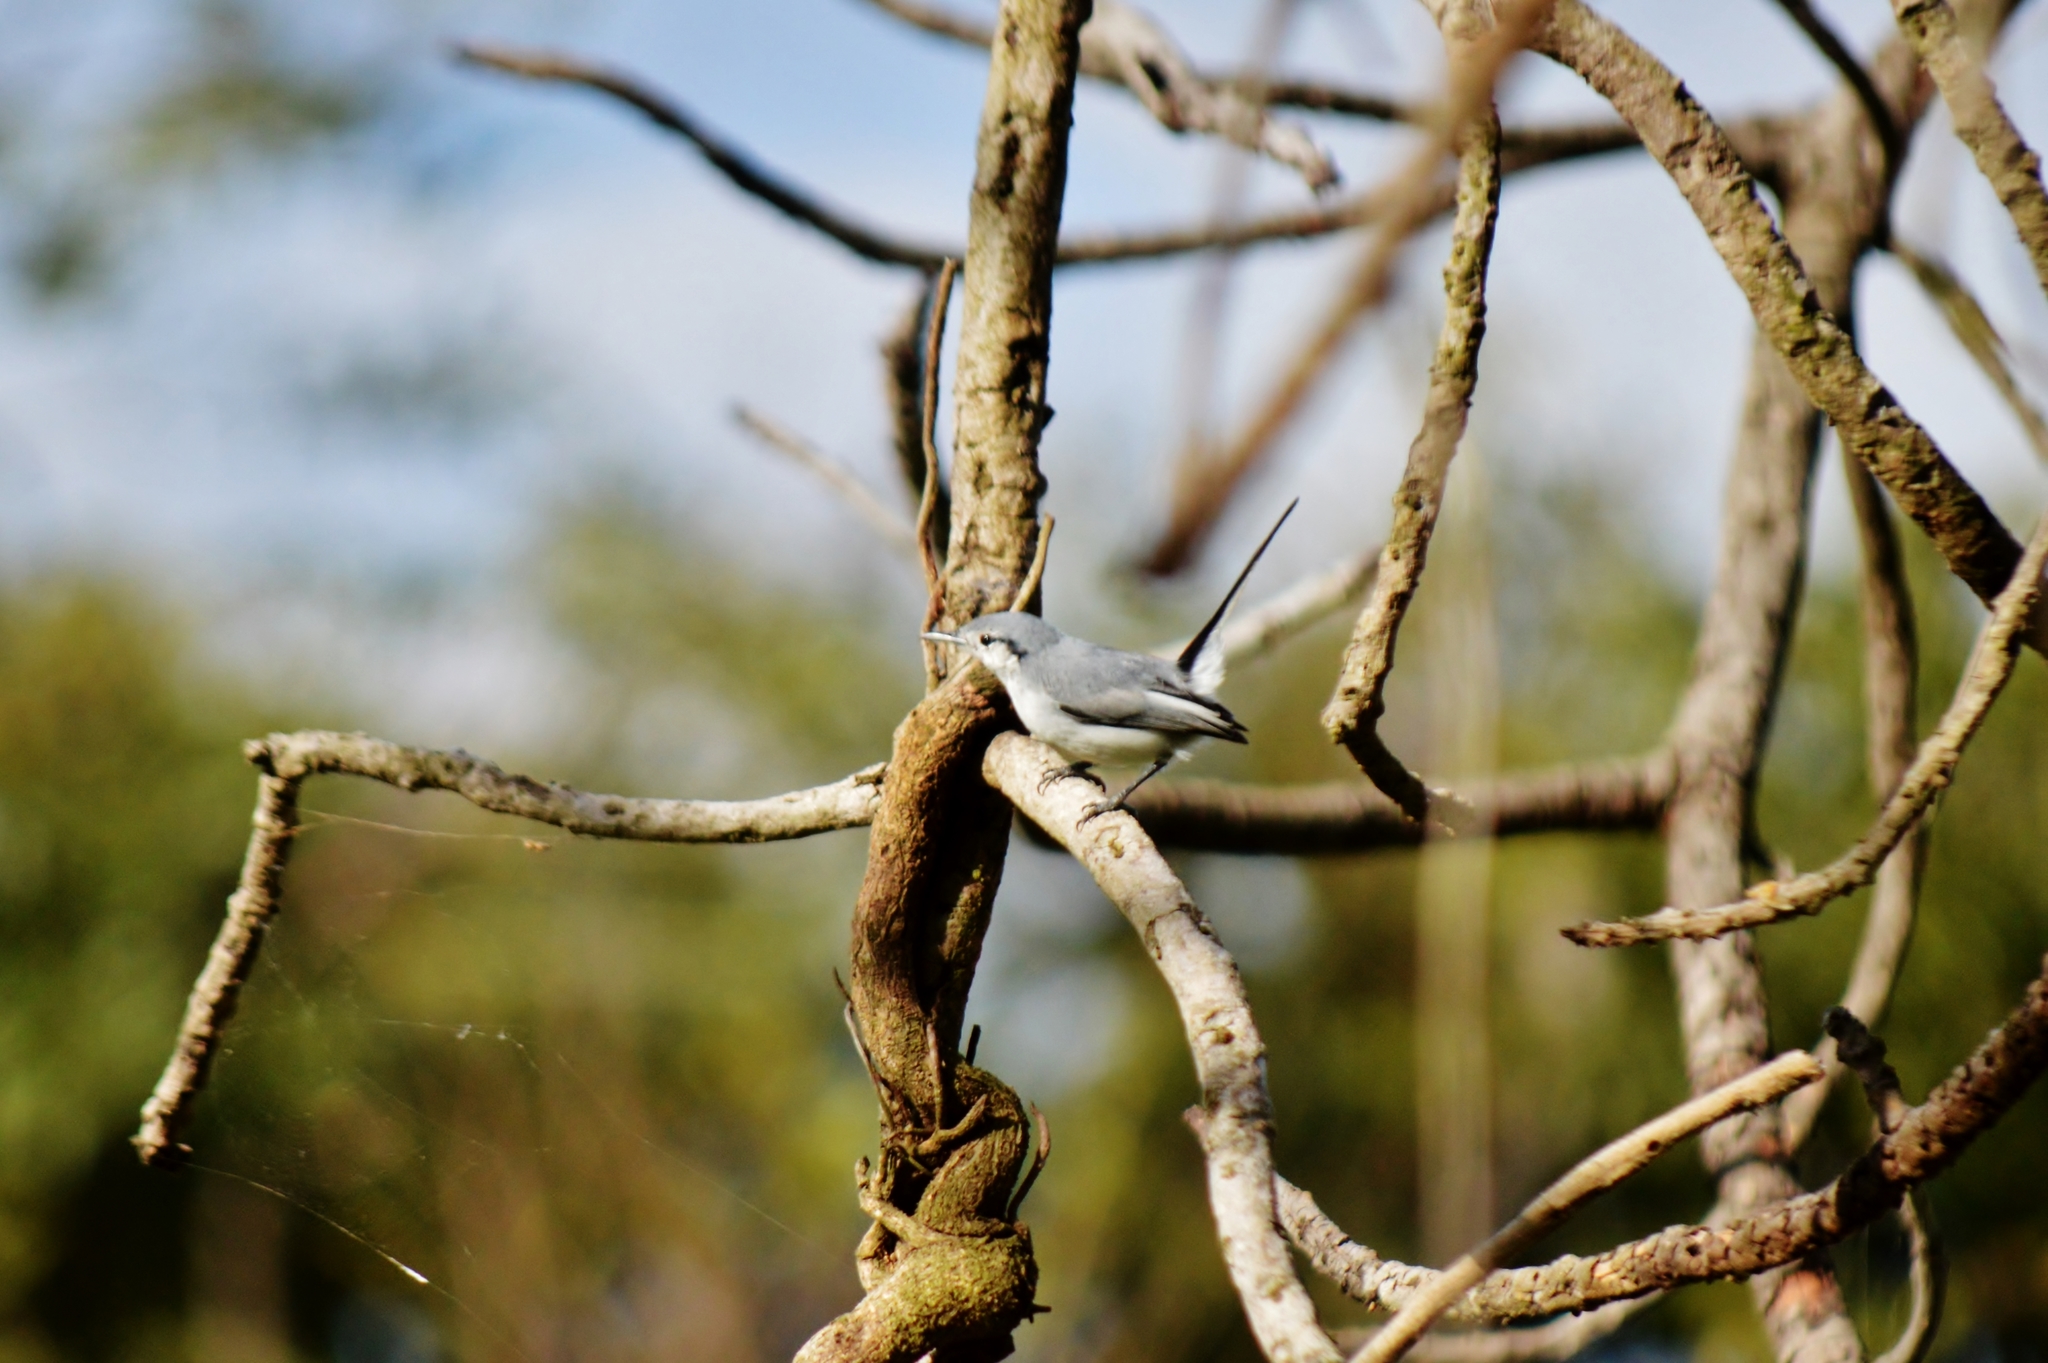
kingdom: Animalia
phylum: Chordata
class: Aves
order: Passeriformes
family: Polioptilidae
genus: Polioptila
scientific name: Polioptila dumicola
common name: Masked gnatcatcher
